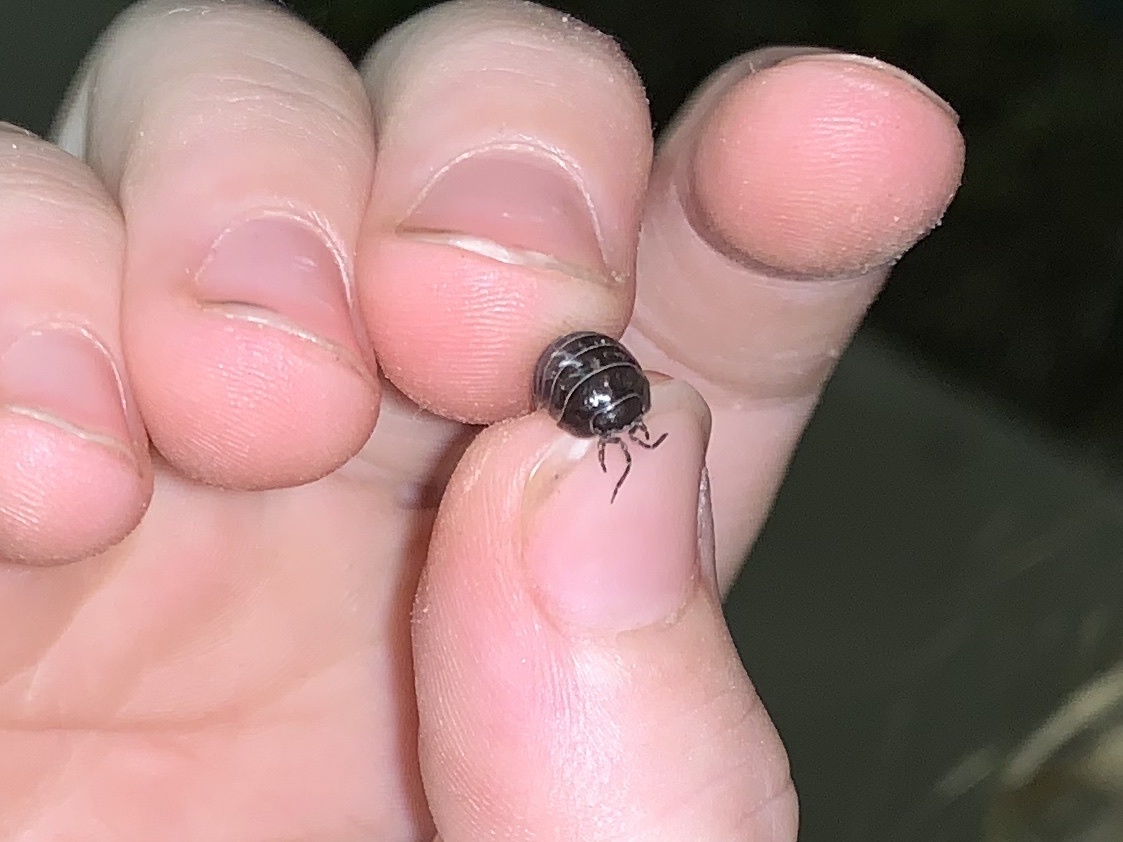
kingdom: Animalia
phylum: Arthropoda
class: Malacostraca
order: Isopoda
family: Armadillidiidae
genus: Armadillidium
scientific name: Armadillidium vulgare
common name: Common pill woodlouse
